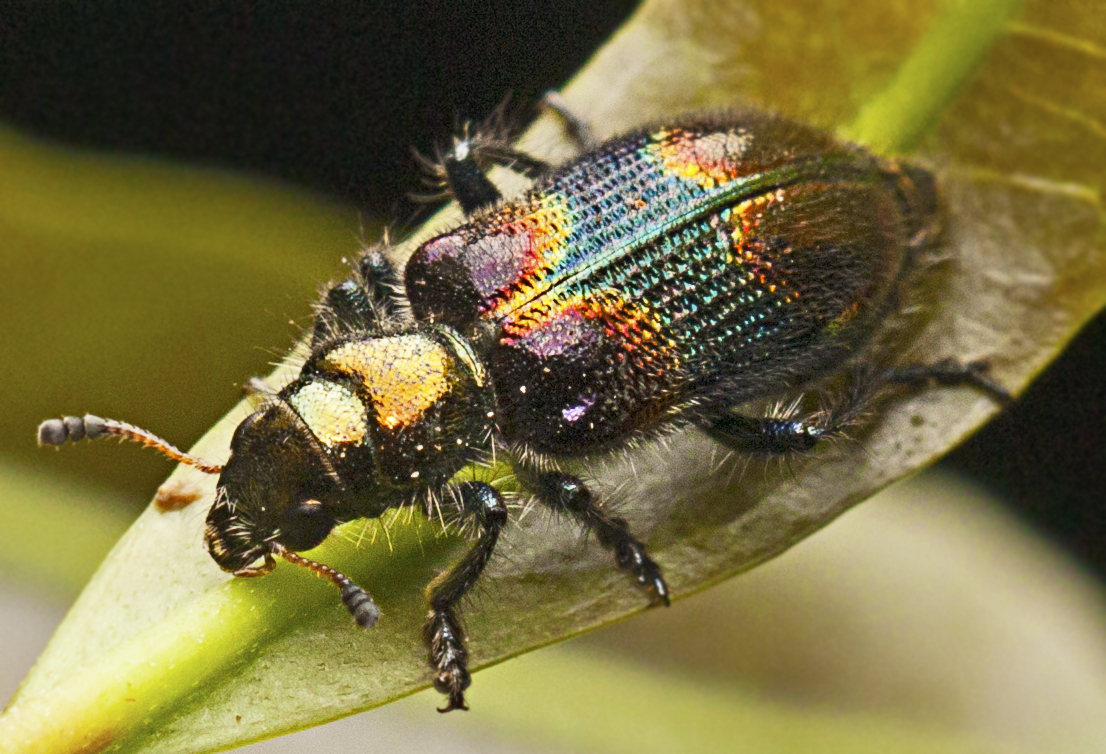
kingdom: Animalia
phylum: Arthropoda
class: Insecta
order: Coleoptera
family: Cleridae
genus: Phlogistus
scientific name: Phlogistus
